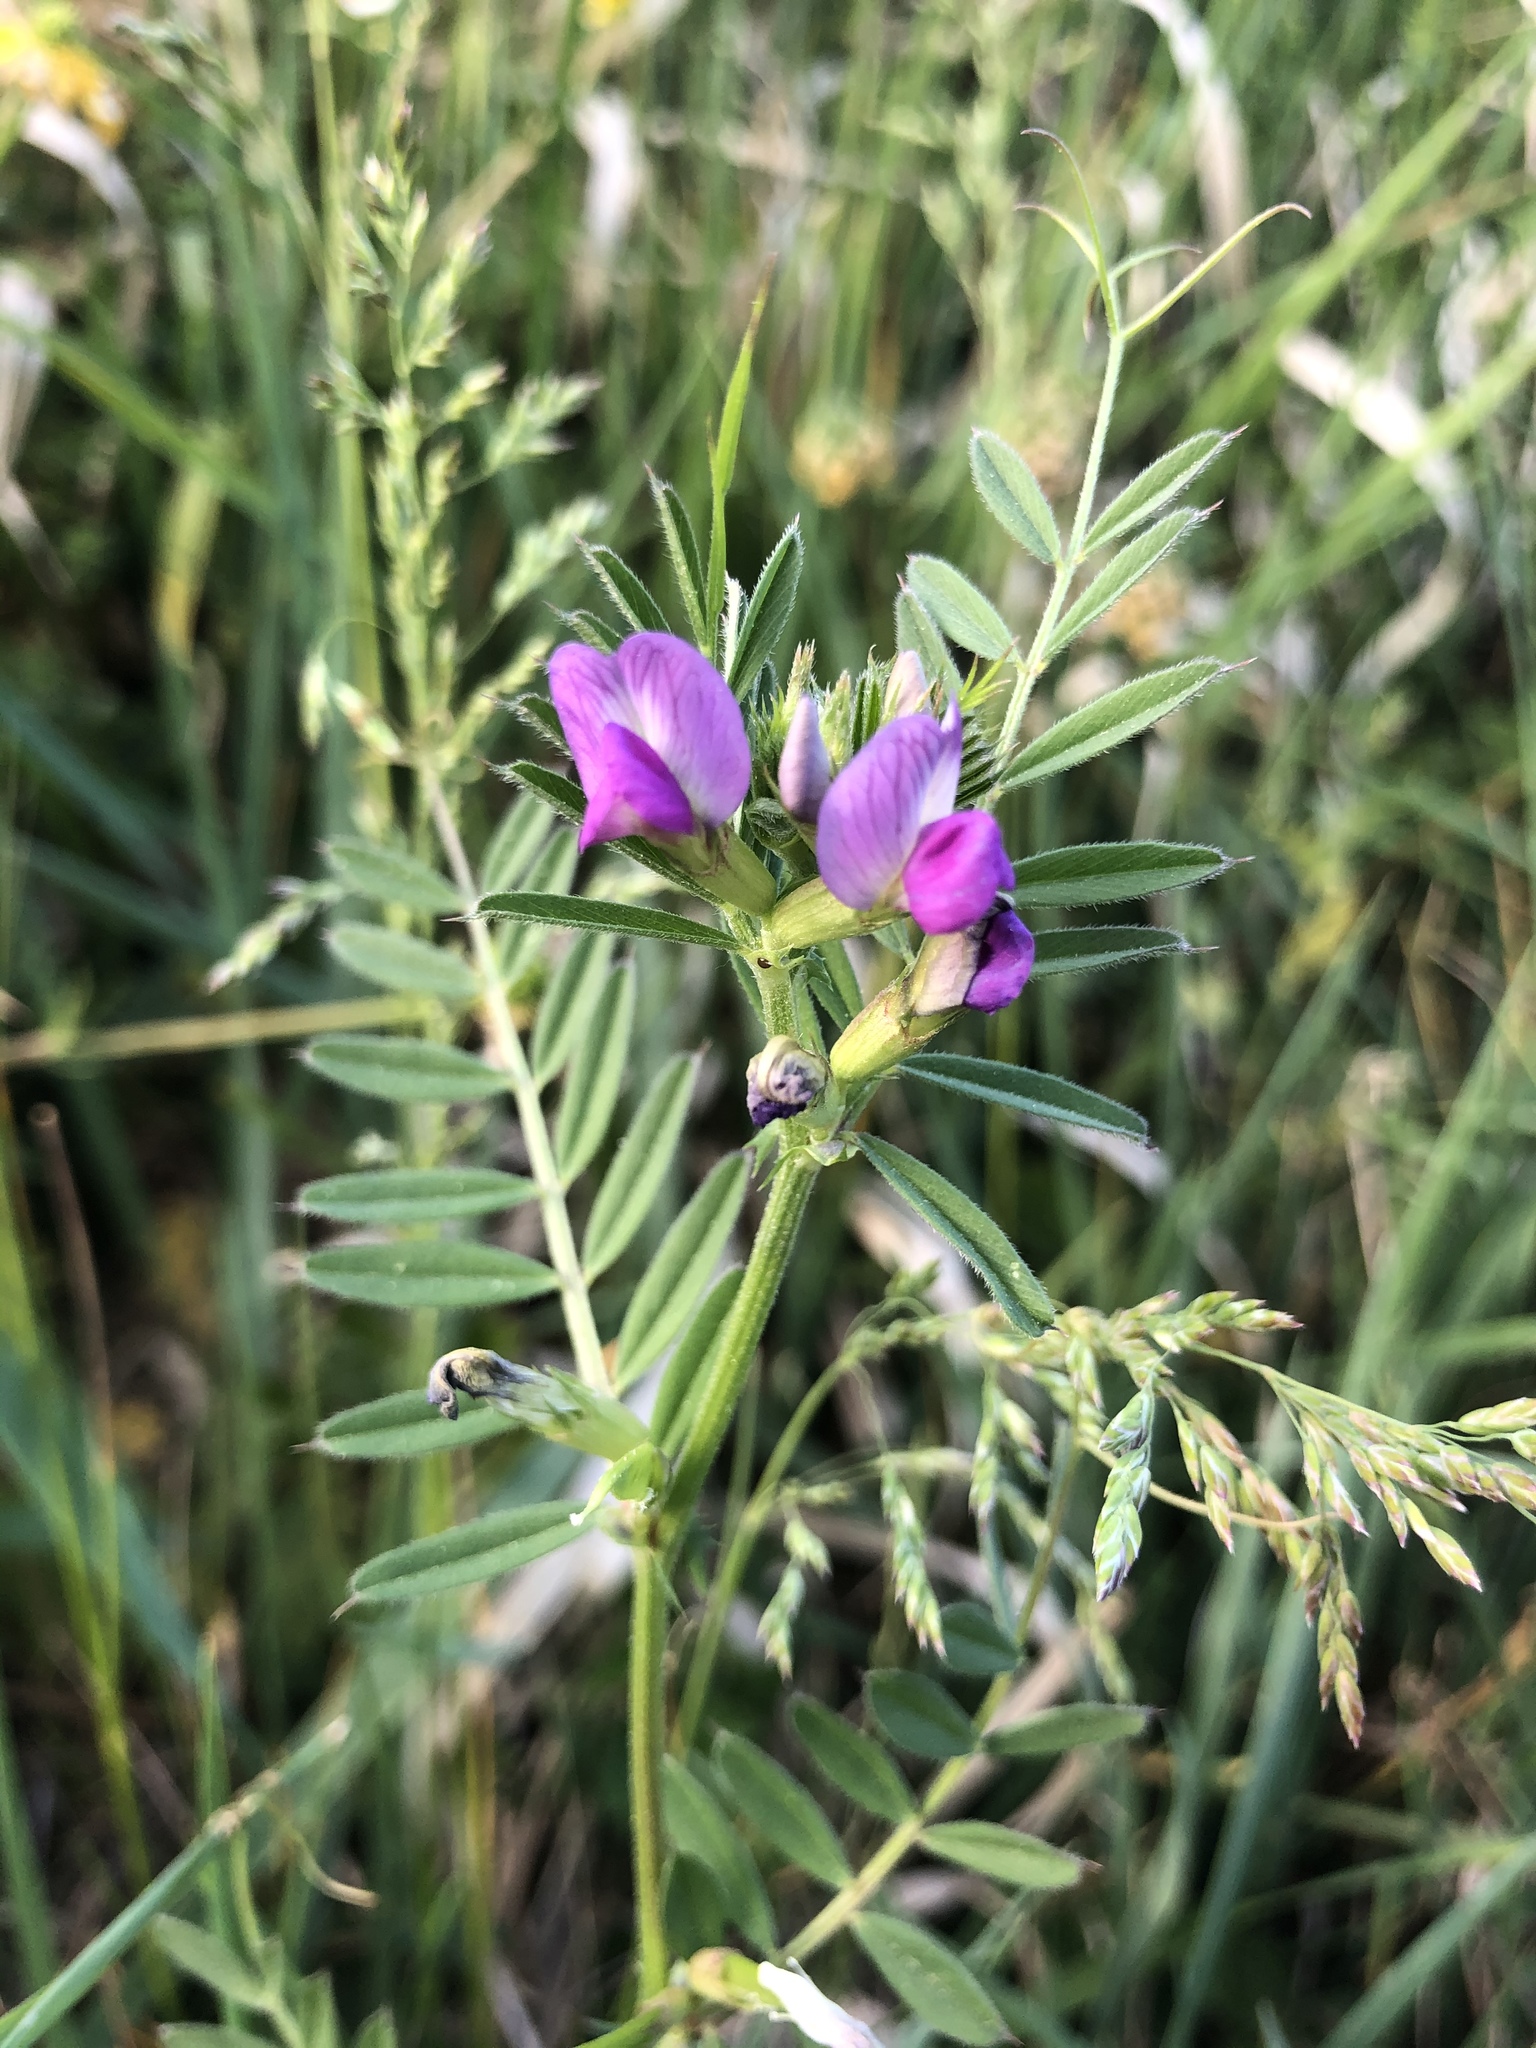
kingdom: Plantae
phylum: Tracheophyta
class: Magnoliopsida
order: Fabales
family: Fabaceae
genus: Vicia
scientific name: Vicia sativa
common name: Garden vetch
